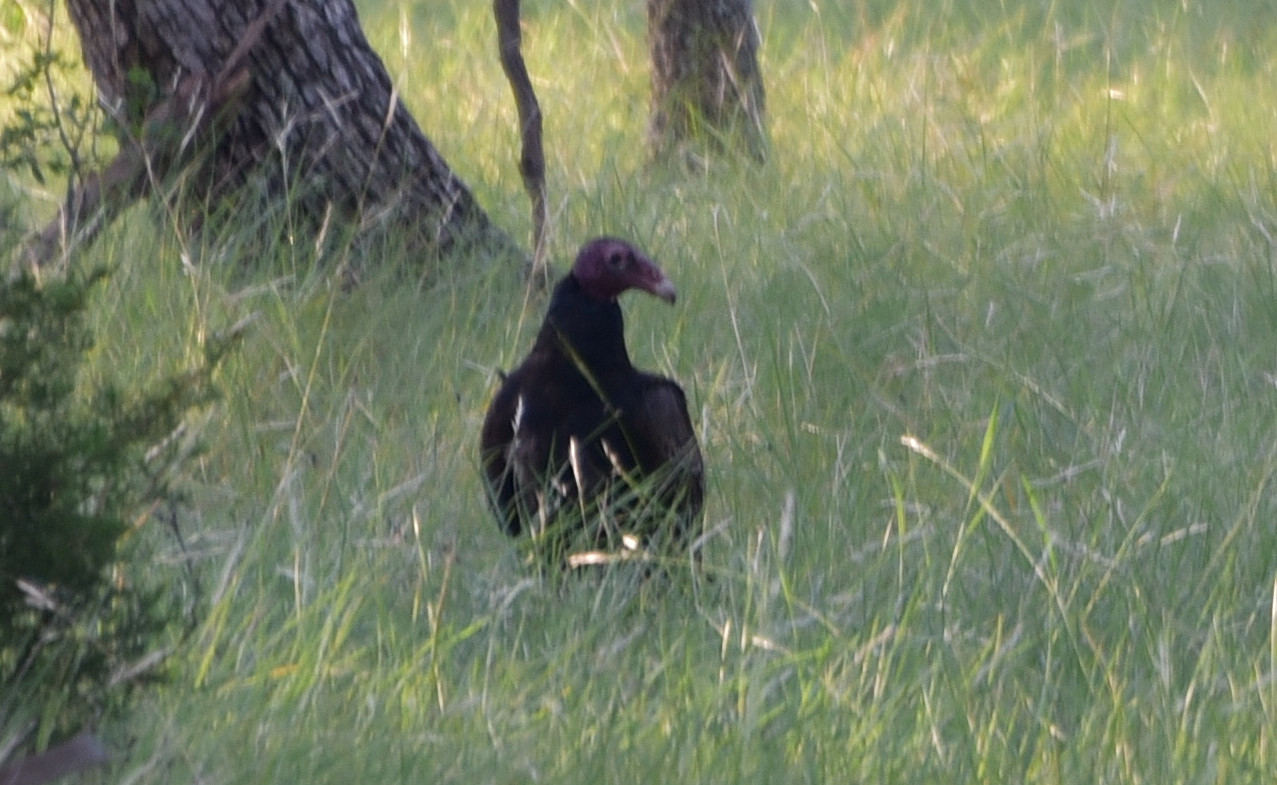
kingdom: Animalia
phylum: Chordata
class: Aves
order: Accipitriformes
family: Cathartidae
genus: Cathartes
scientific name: Cathartes aura
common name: Turkey vulture
